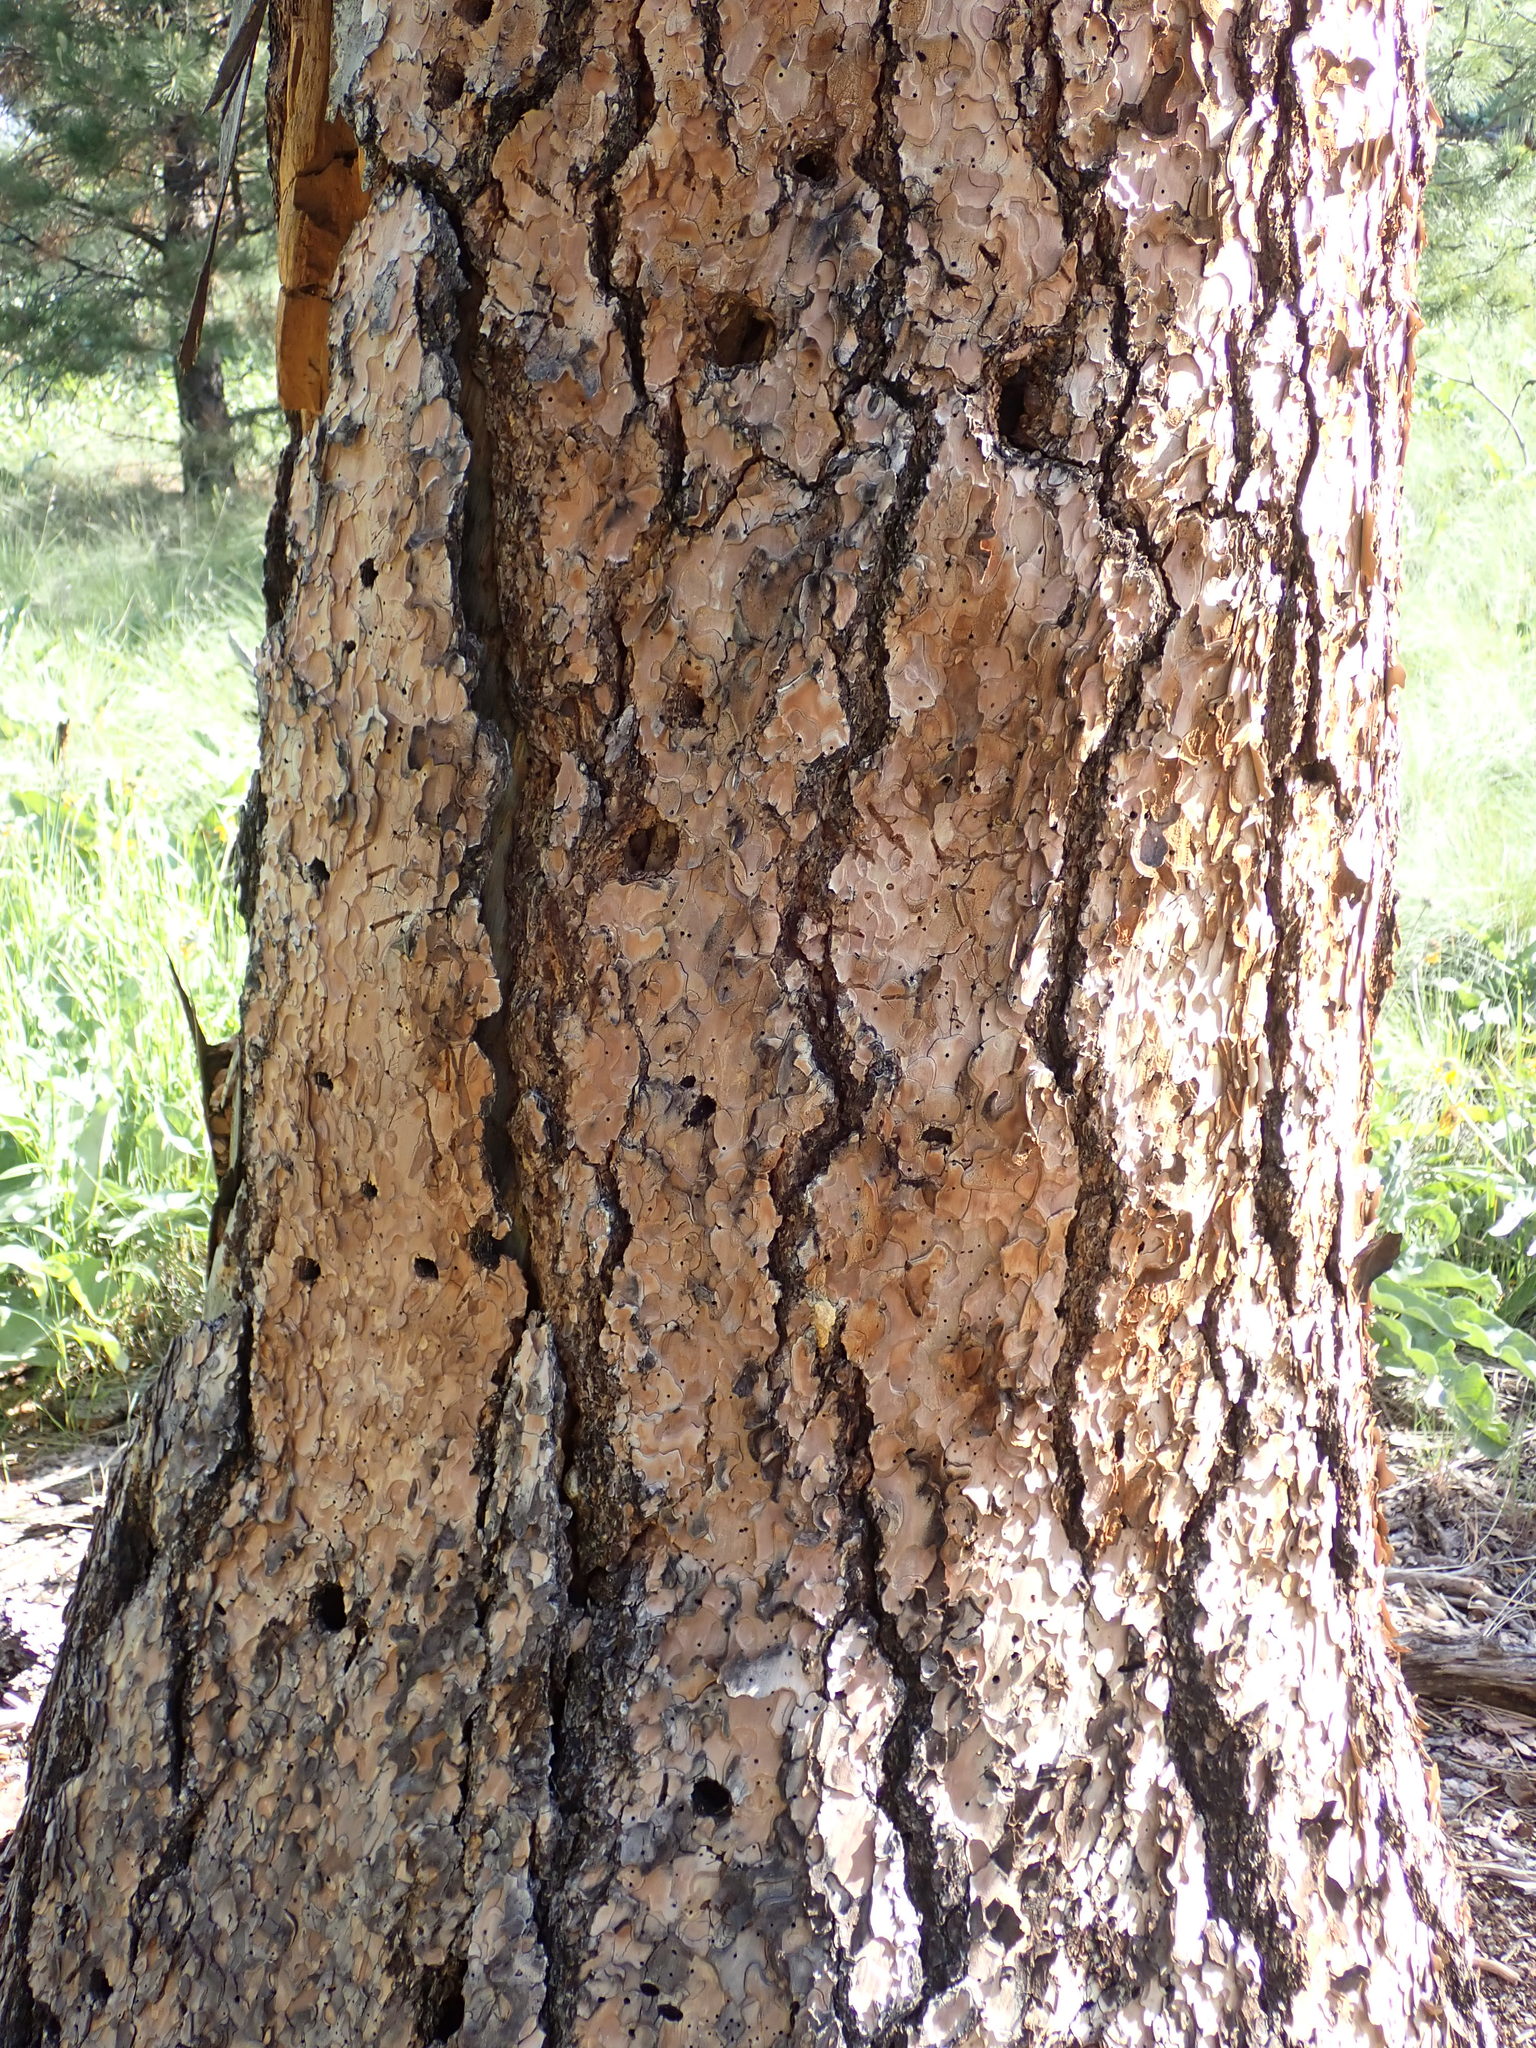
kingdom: Plantae
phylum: Tracheophyta
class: Pinopsida
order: Pinales
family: Pinaceae
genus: Pinus
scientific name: Pinus ponderosa
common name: Western yellow-pine
